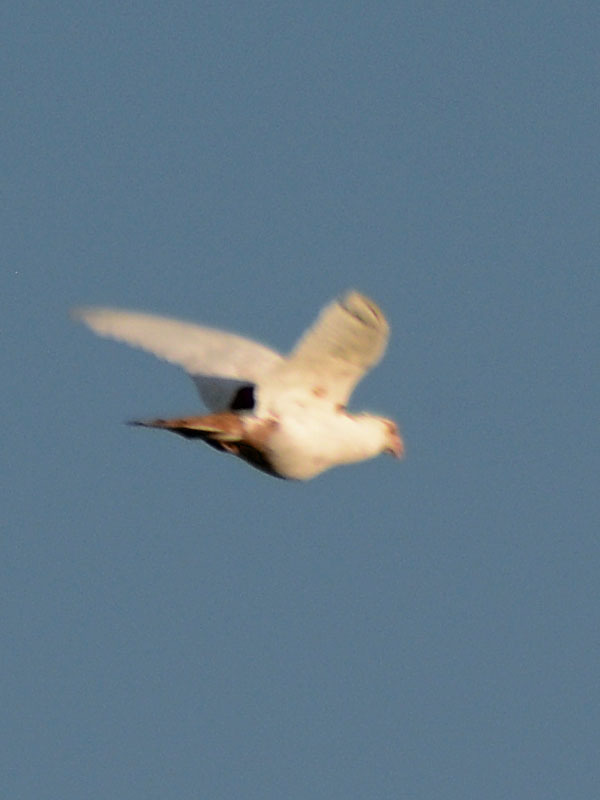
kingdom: Animalia
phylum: Chordata
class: Aves
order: Columbiformes
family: Columbidae
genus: Columba
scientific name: Columba livia
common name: Rock pigeon
